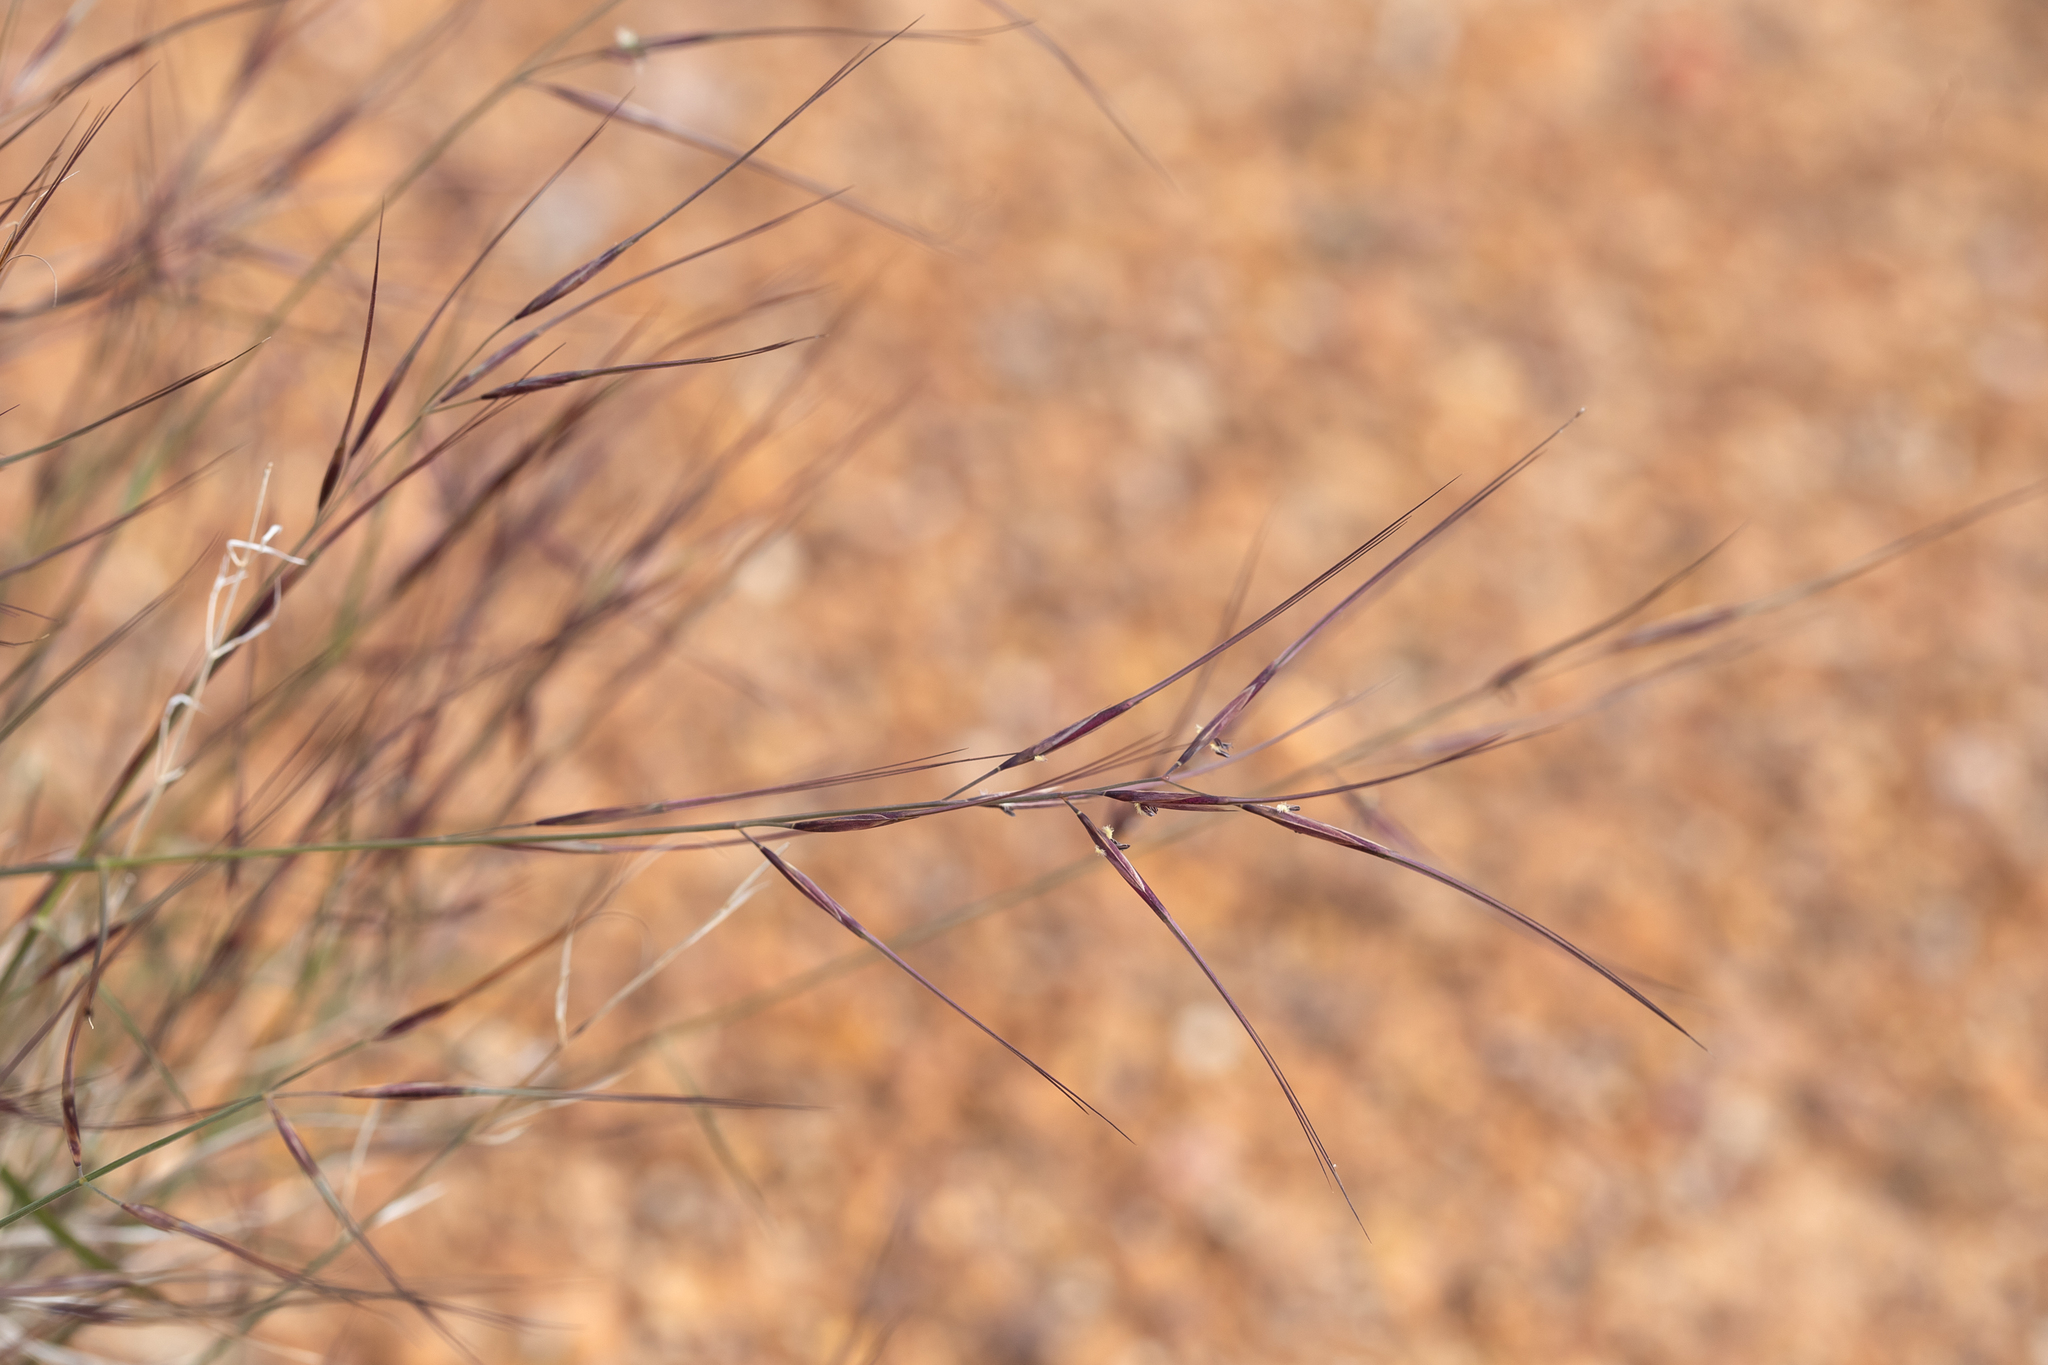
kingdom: Plantae
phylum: Tracheophyta
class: Liliopsida
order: Poales
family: Poaceae
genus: Aristida
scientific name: Aristida calycina
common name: Dark wire grass
